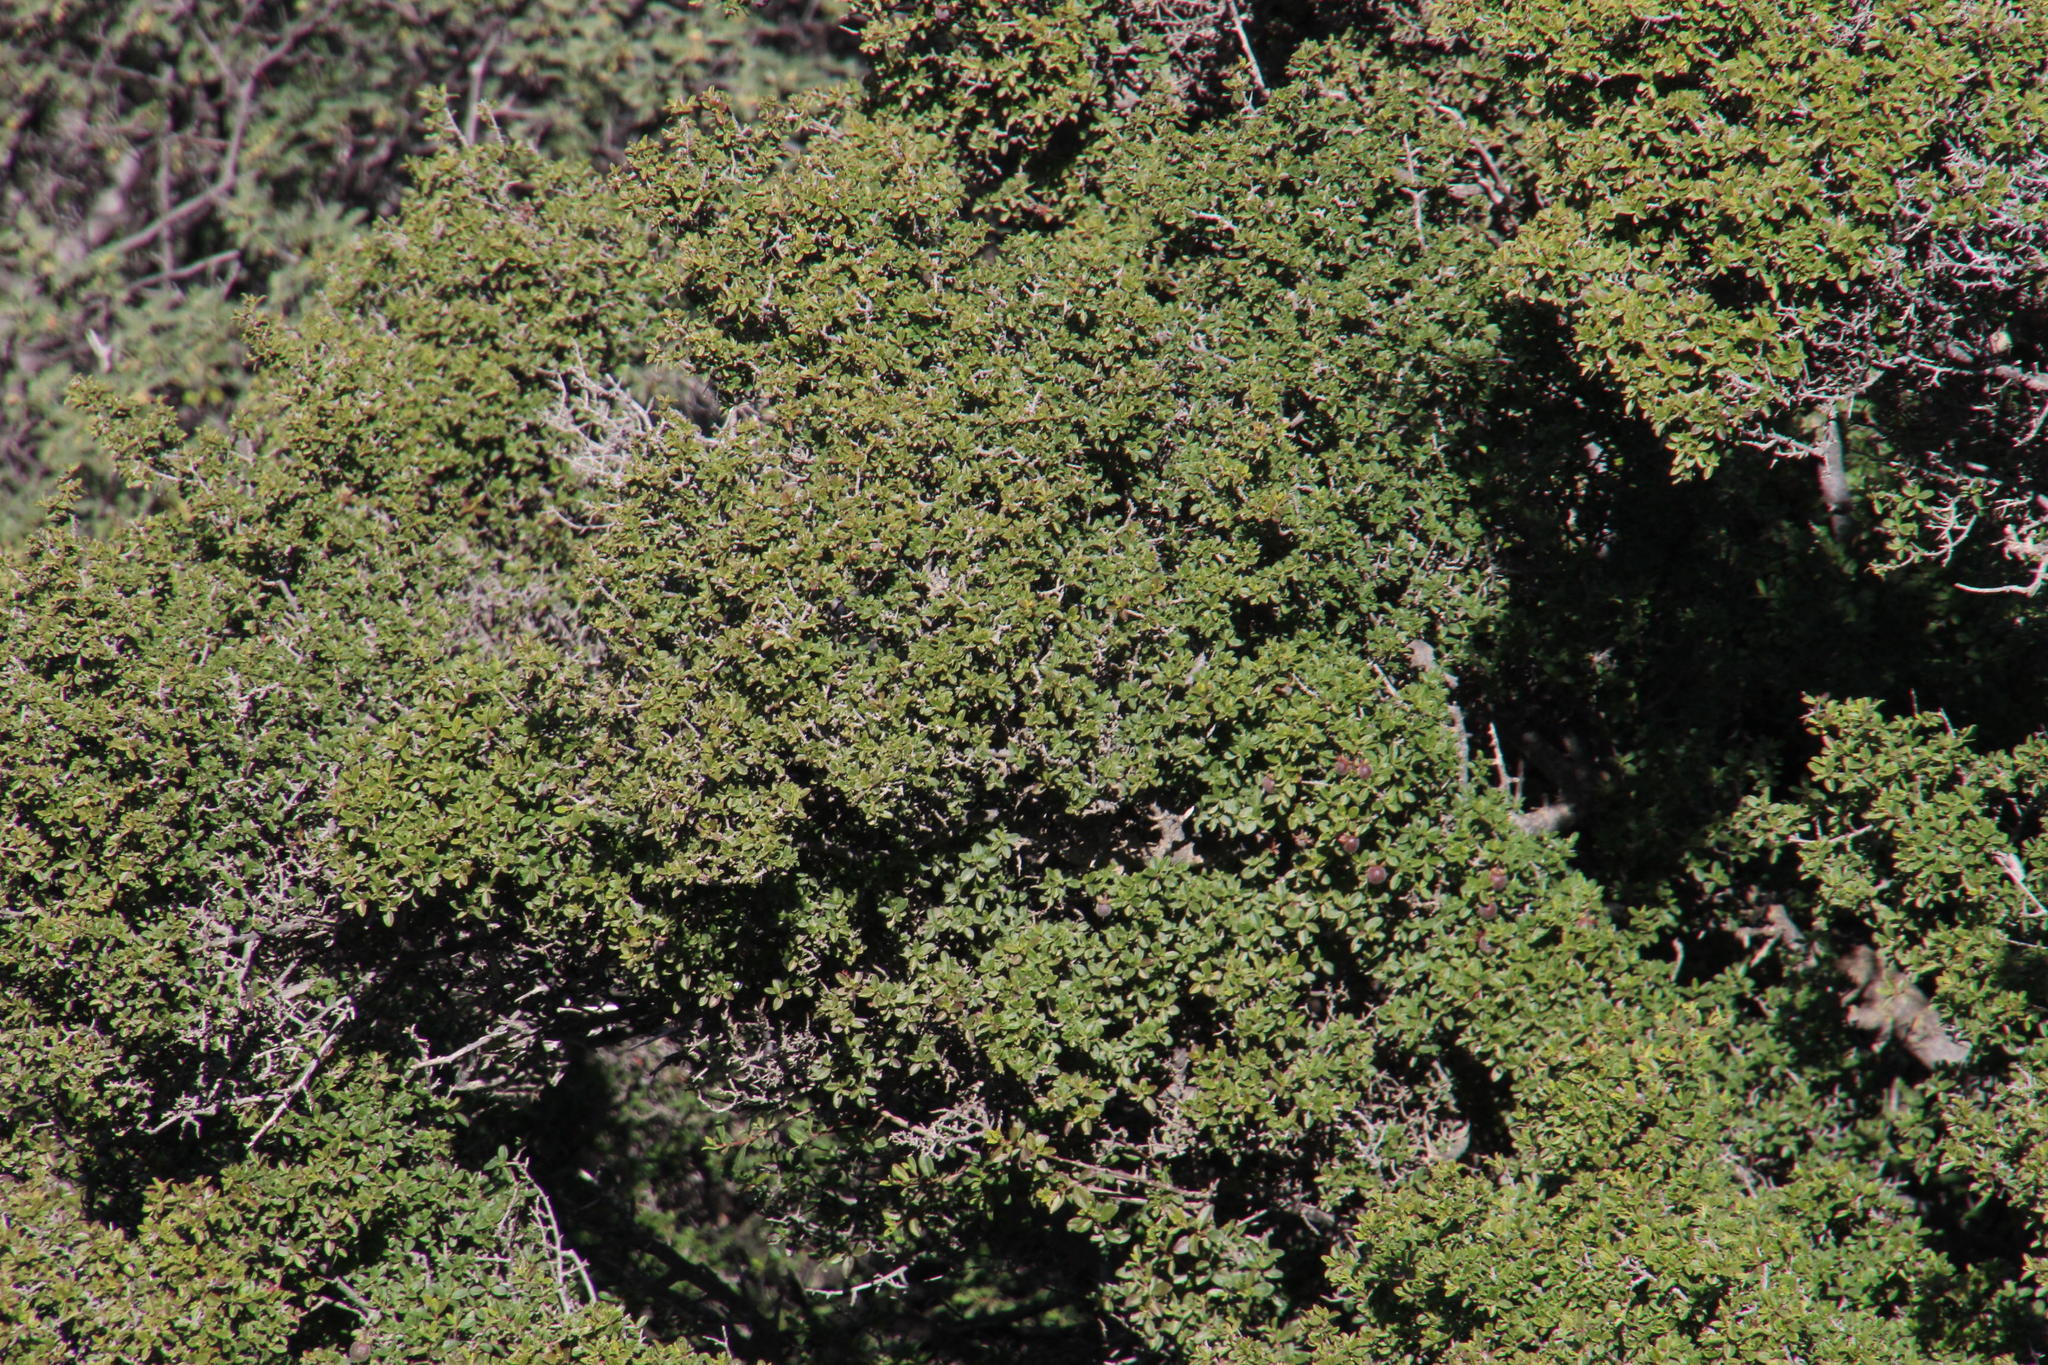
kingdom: Plantae
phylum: Tracheophyta
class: Magnoliopsida
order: Ericales
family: Ebenaceae
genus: Diospyros
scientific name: Diospyros ramulosa
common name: Namaqua fire-sticks
